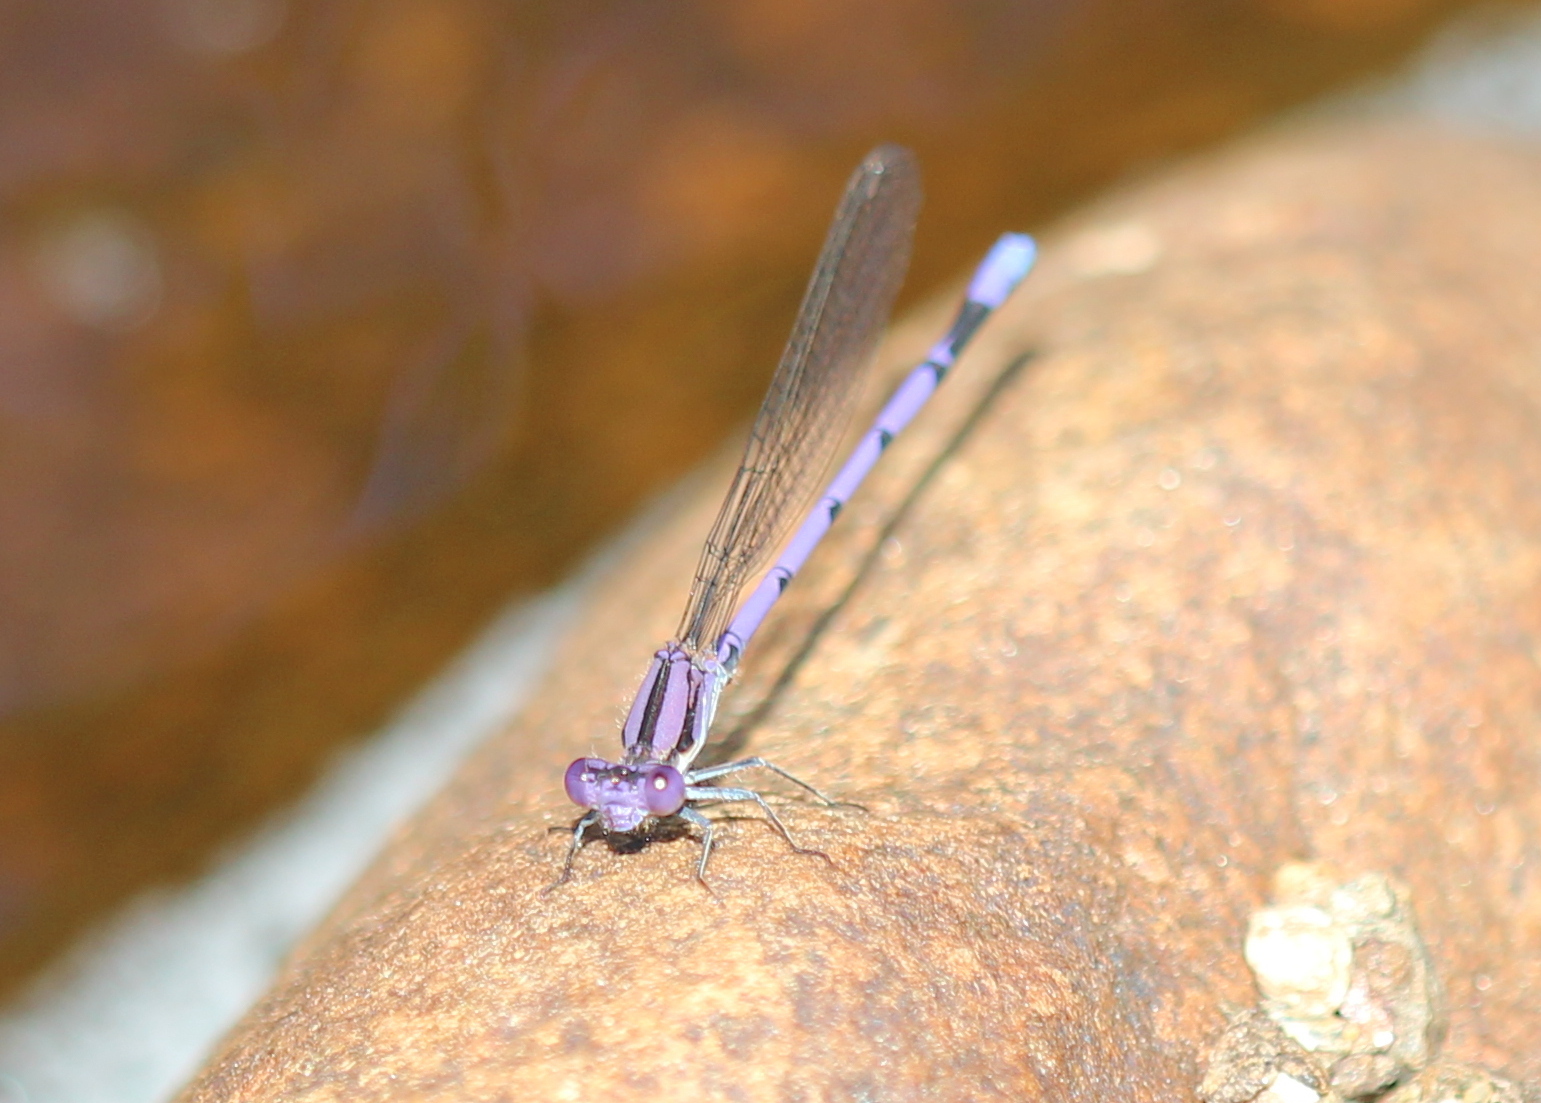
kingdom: Animalia
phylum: Arthropoda
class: Insecta
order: Odonata
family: Coenagrionidae
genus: Argia
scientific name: Argia fumipennis
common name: Variable dancer
